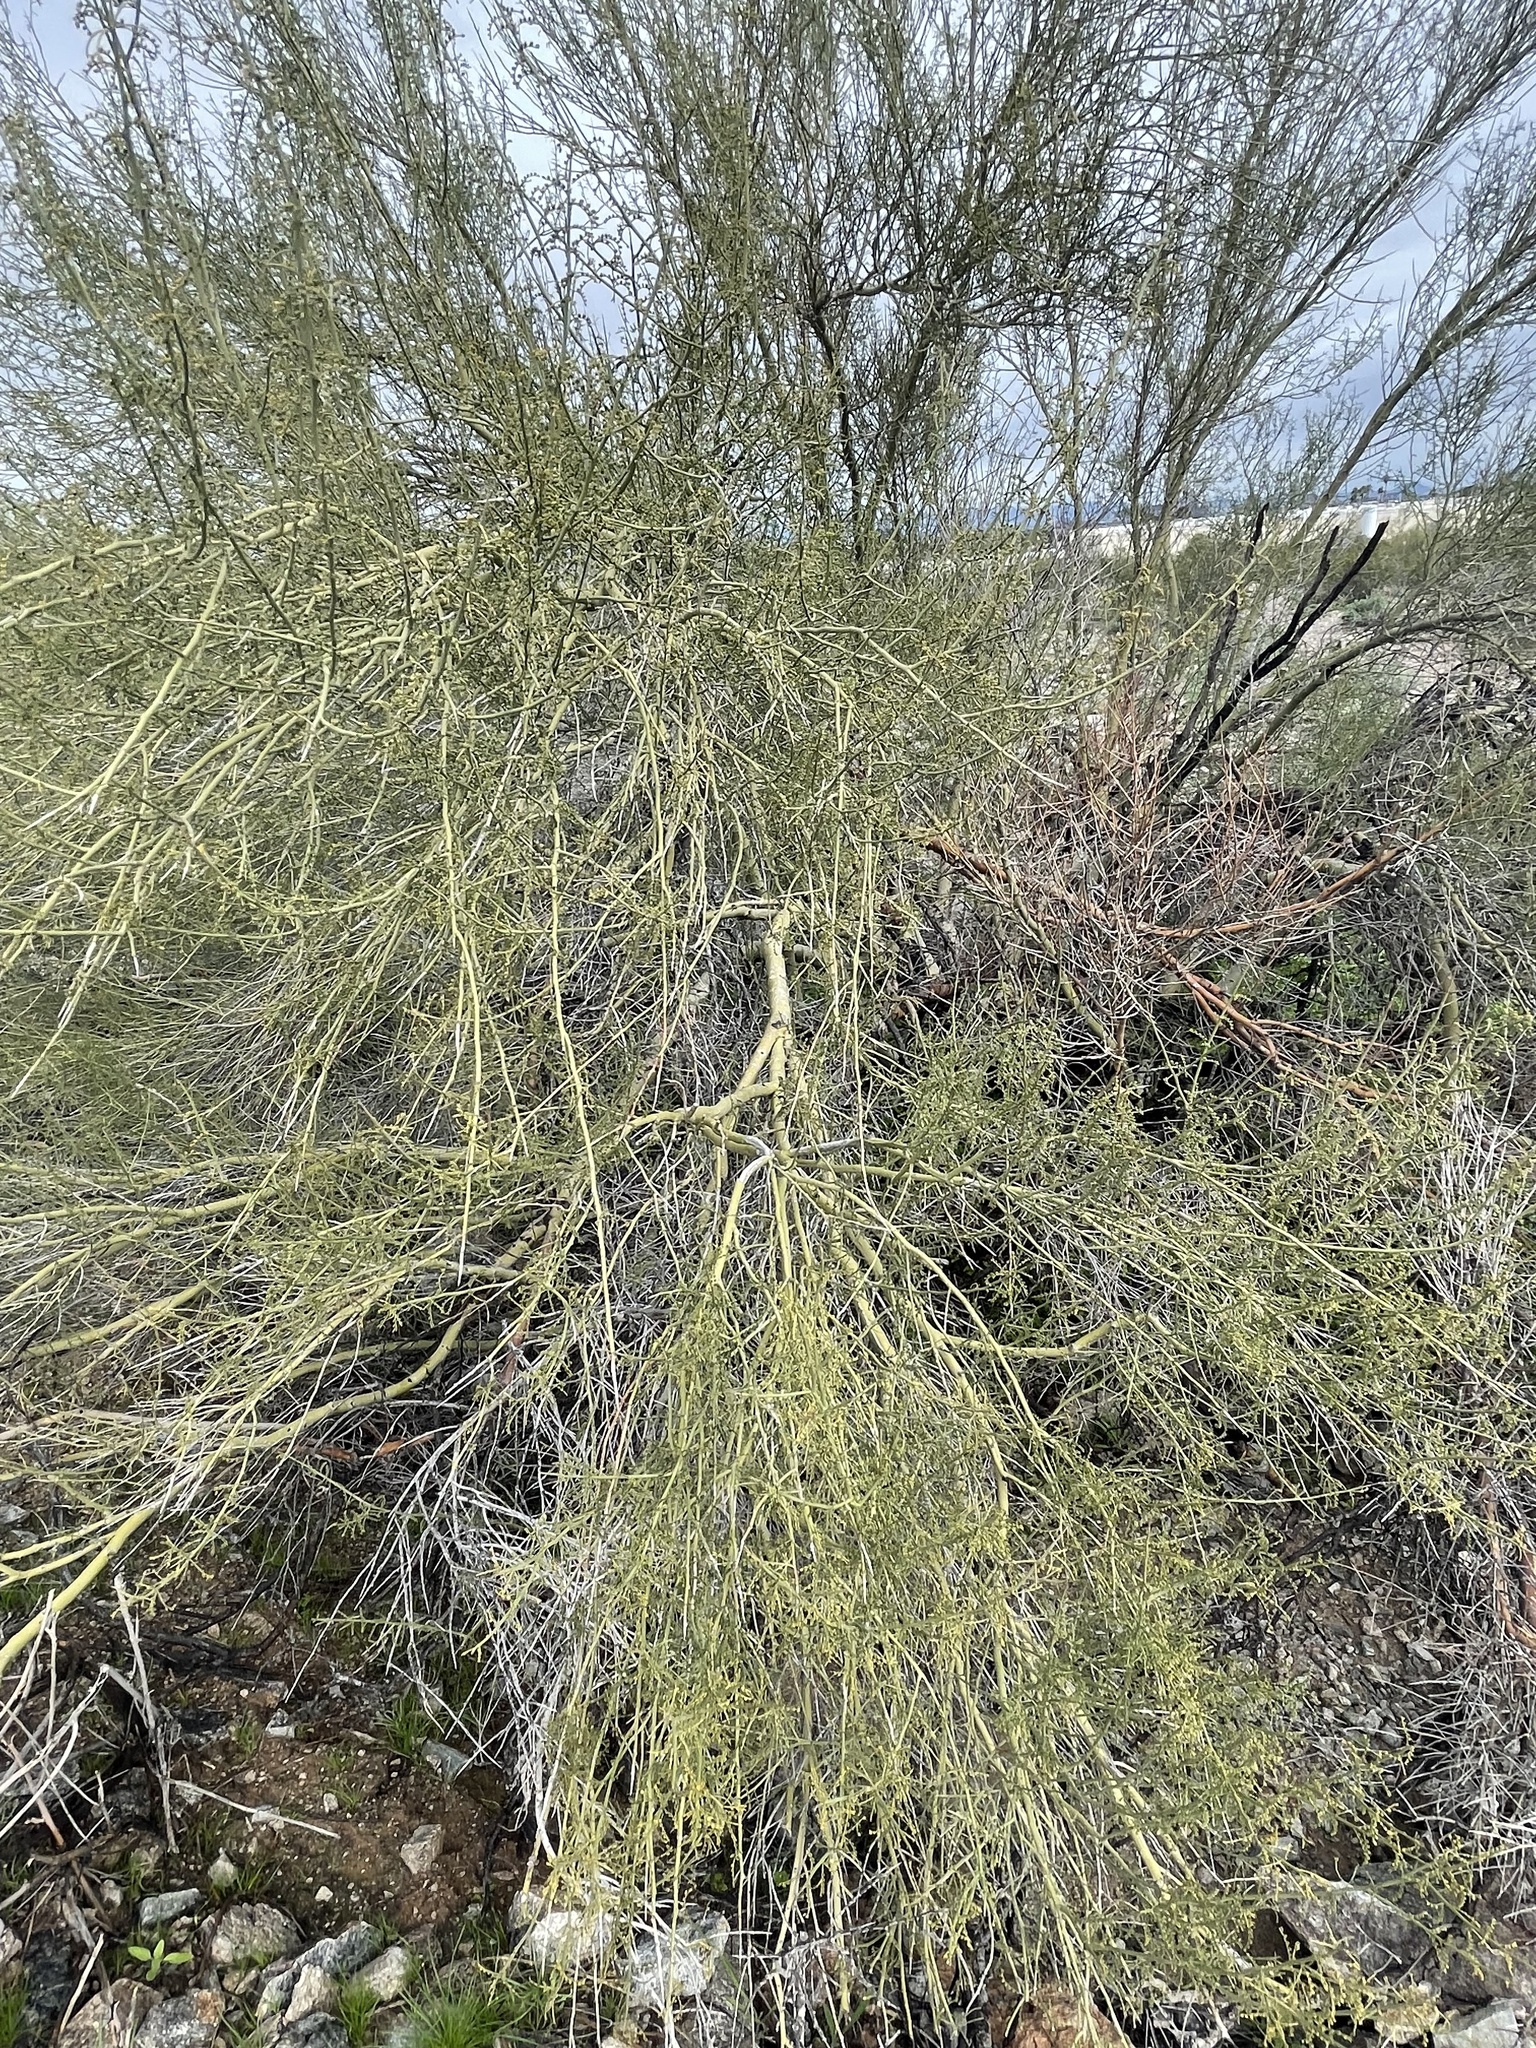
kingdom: Plantae
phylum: Tracheophyta
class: Magnoliopsida
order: Fabales
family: Fabaceae
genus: Parkinsonia
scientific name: Parkinsonia microphylla
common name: Yellow paloverde
